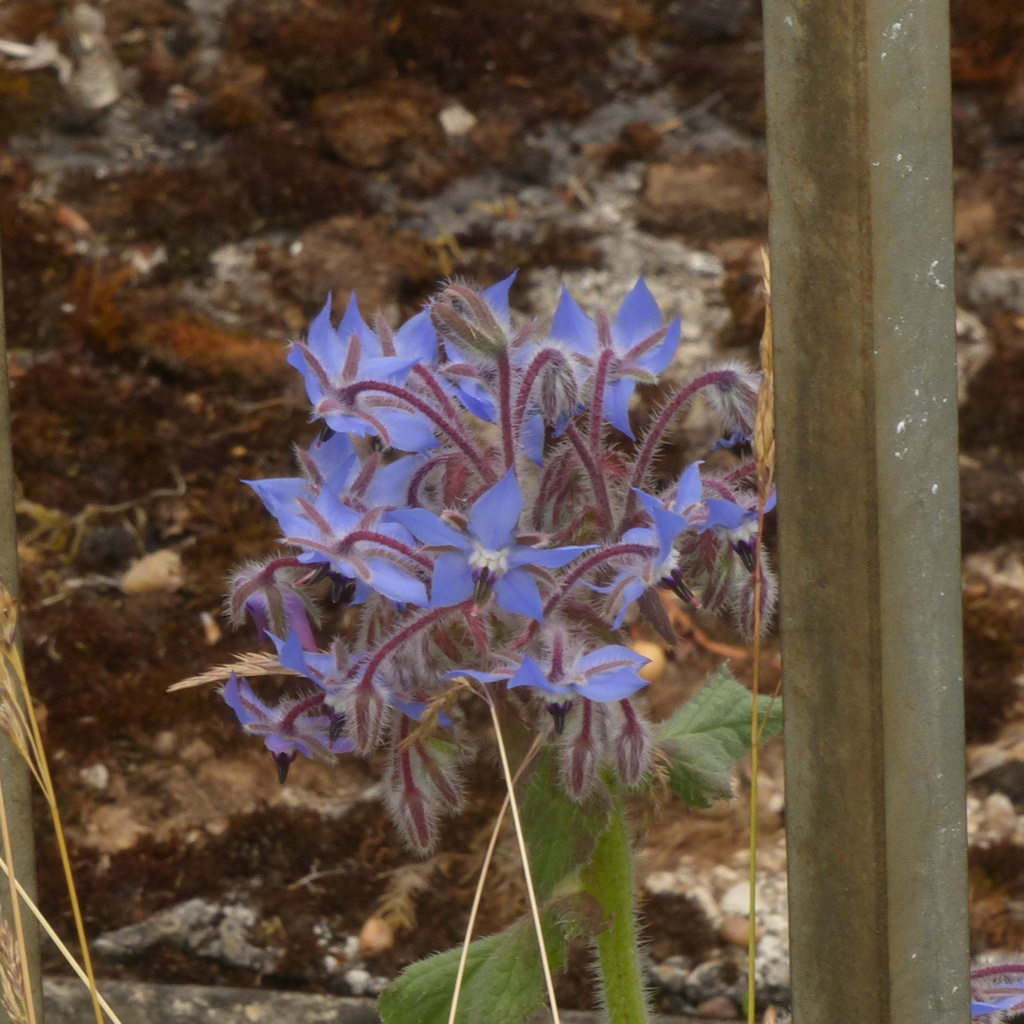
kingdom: Plantae
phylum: Tracheophyta
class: Magnoliopsida
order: Boraginales
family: Boraginaceae
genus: Borago
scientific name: Borago officinalis
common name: Borage
